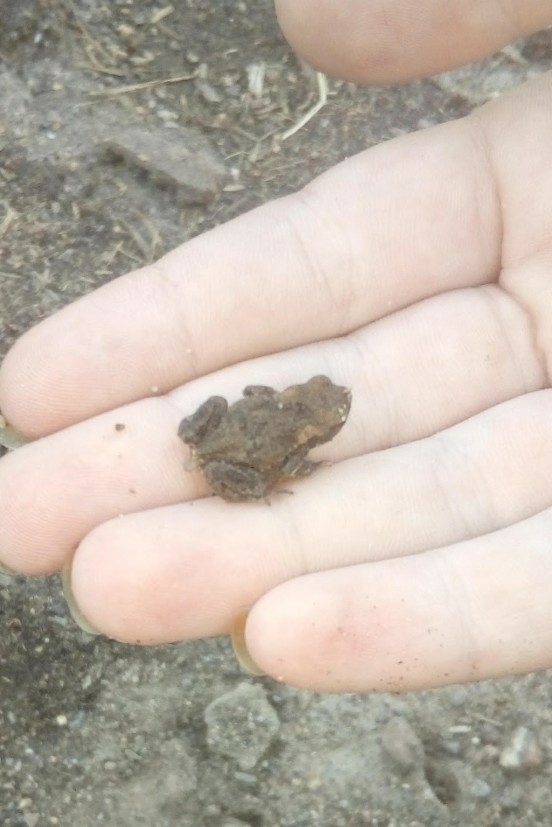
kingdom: Animalia
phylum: Chordata
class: Amphibia
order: Anura
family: Bufonidae
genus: Bufo
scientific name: Bufo bufo
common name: Common toad
